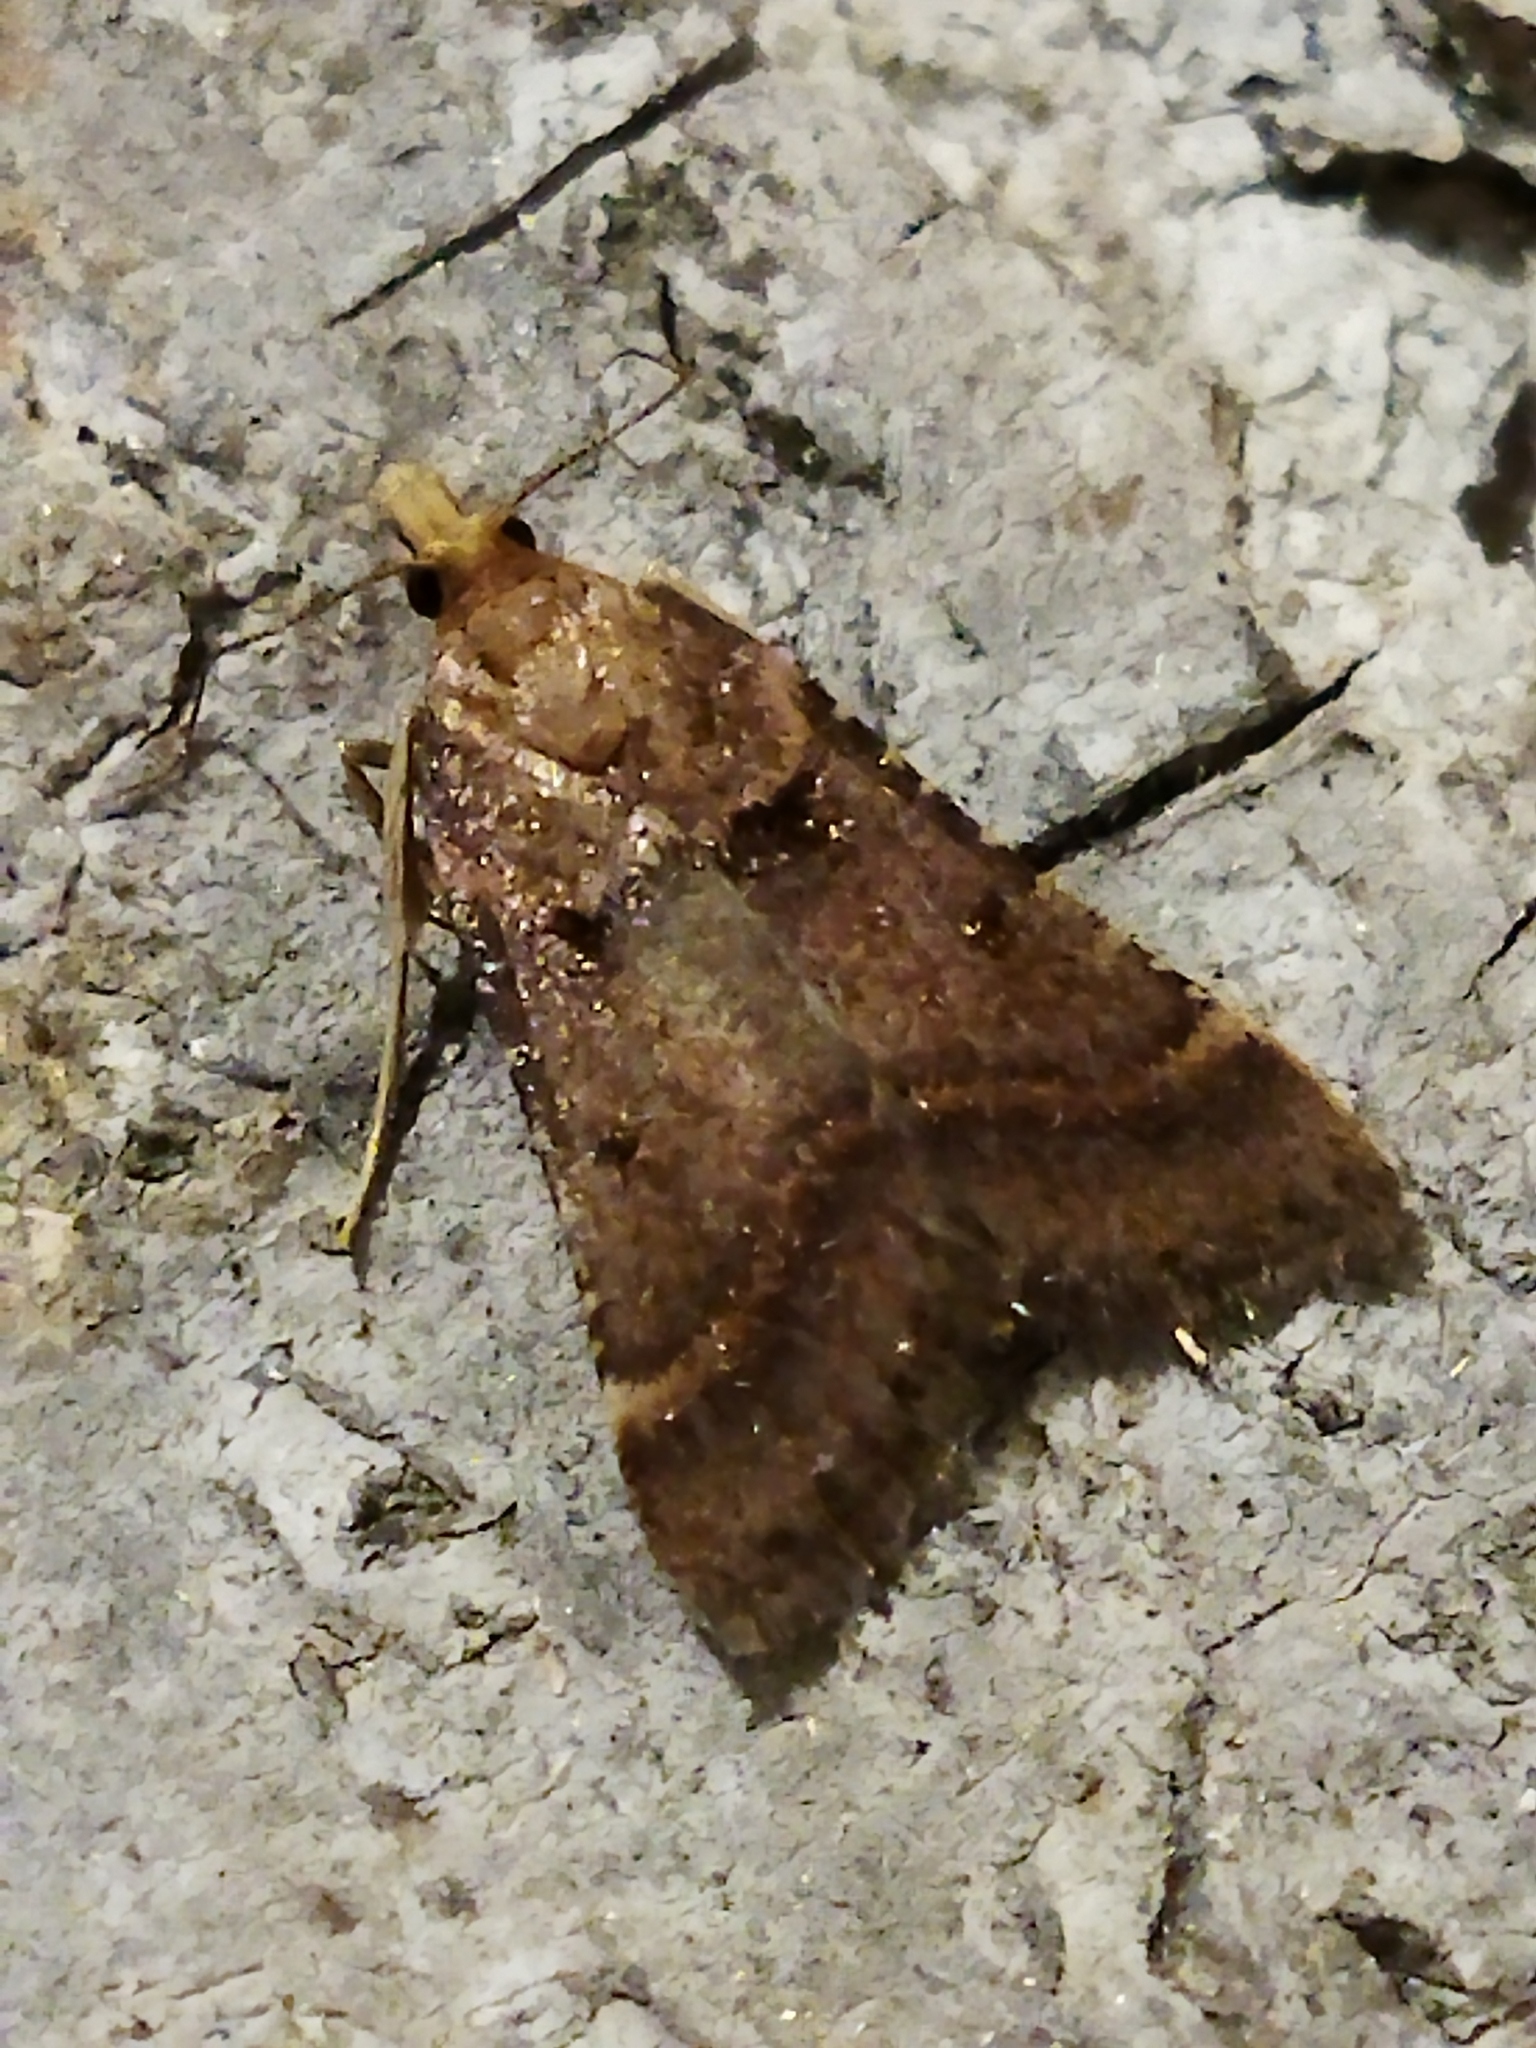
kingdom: Animalia
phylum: Arthropoda
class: Insecta
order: Lepidoptera
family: Pyralidae
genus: Stemmatophora
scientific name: Stemmatophora brunnealis
